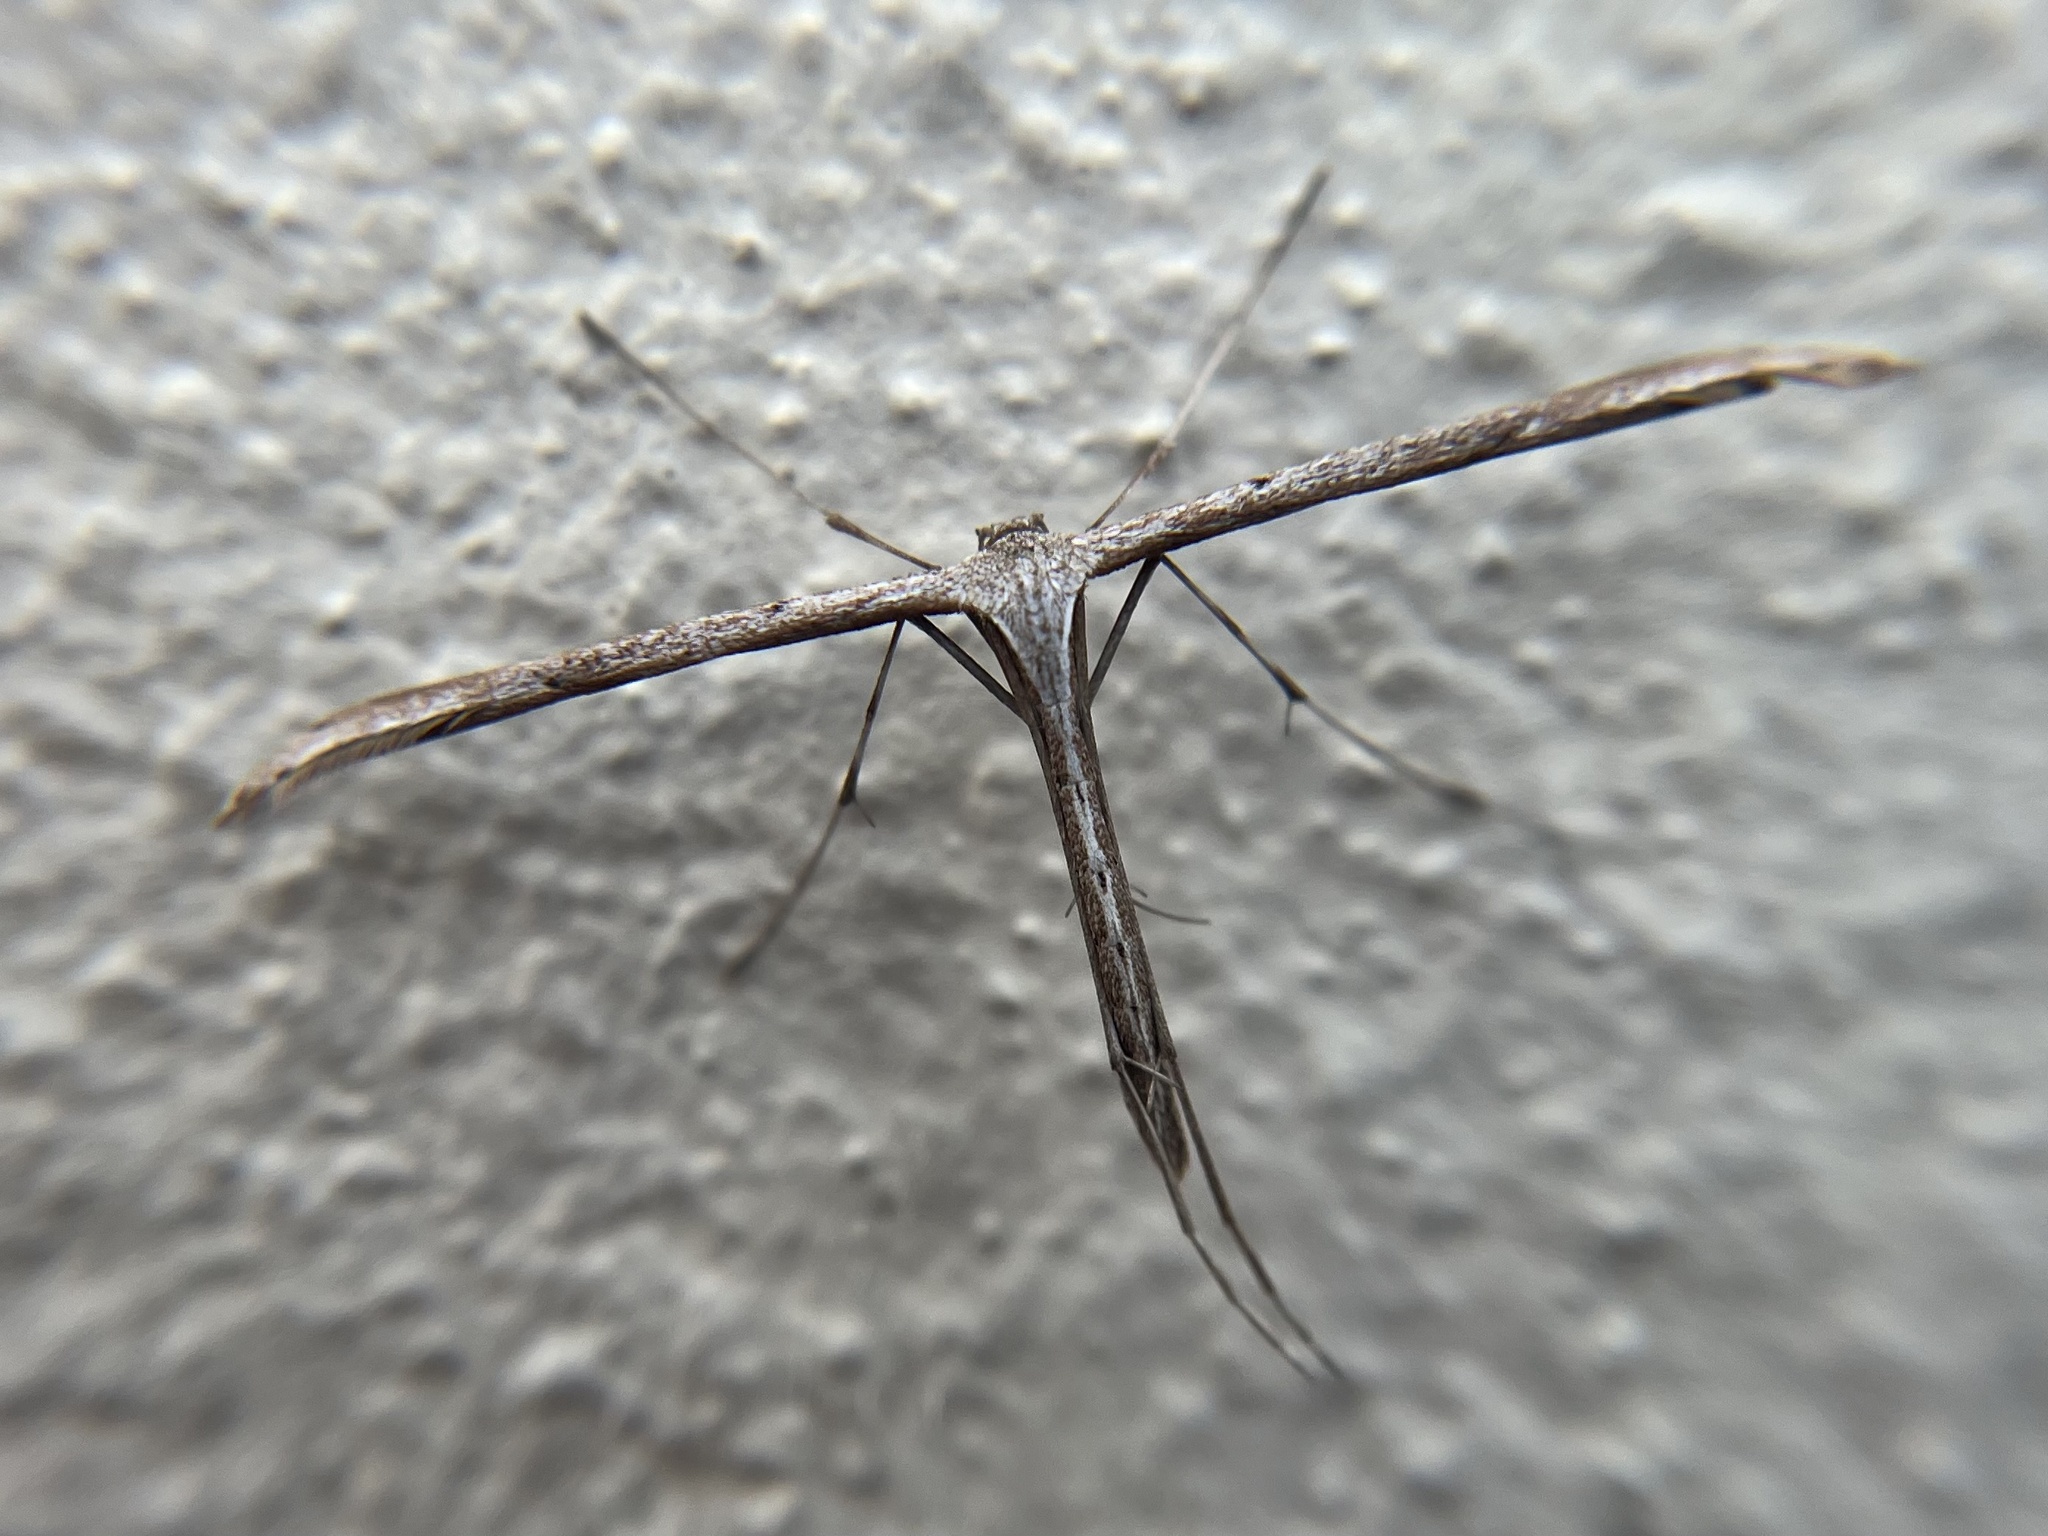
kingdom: Animalia
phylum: Arthropoda
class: Insecta
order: Lepidoptera
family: Pterophoridae
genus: Emmelina
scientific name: Emmelina monodactyla
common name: Common plume
